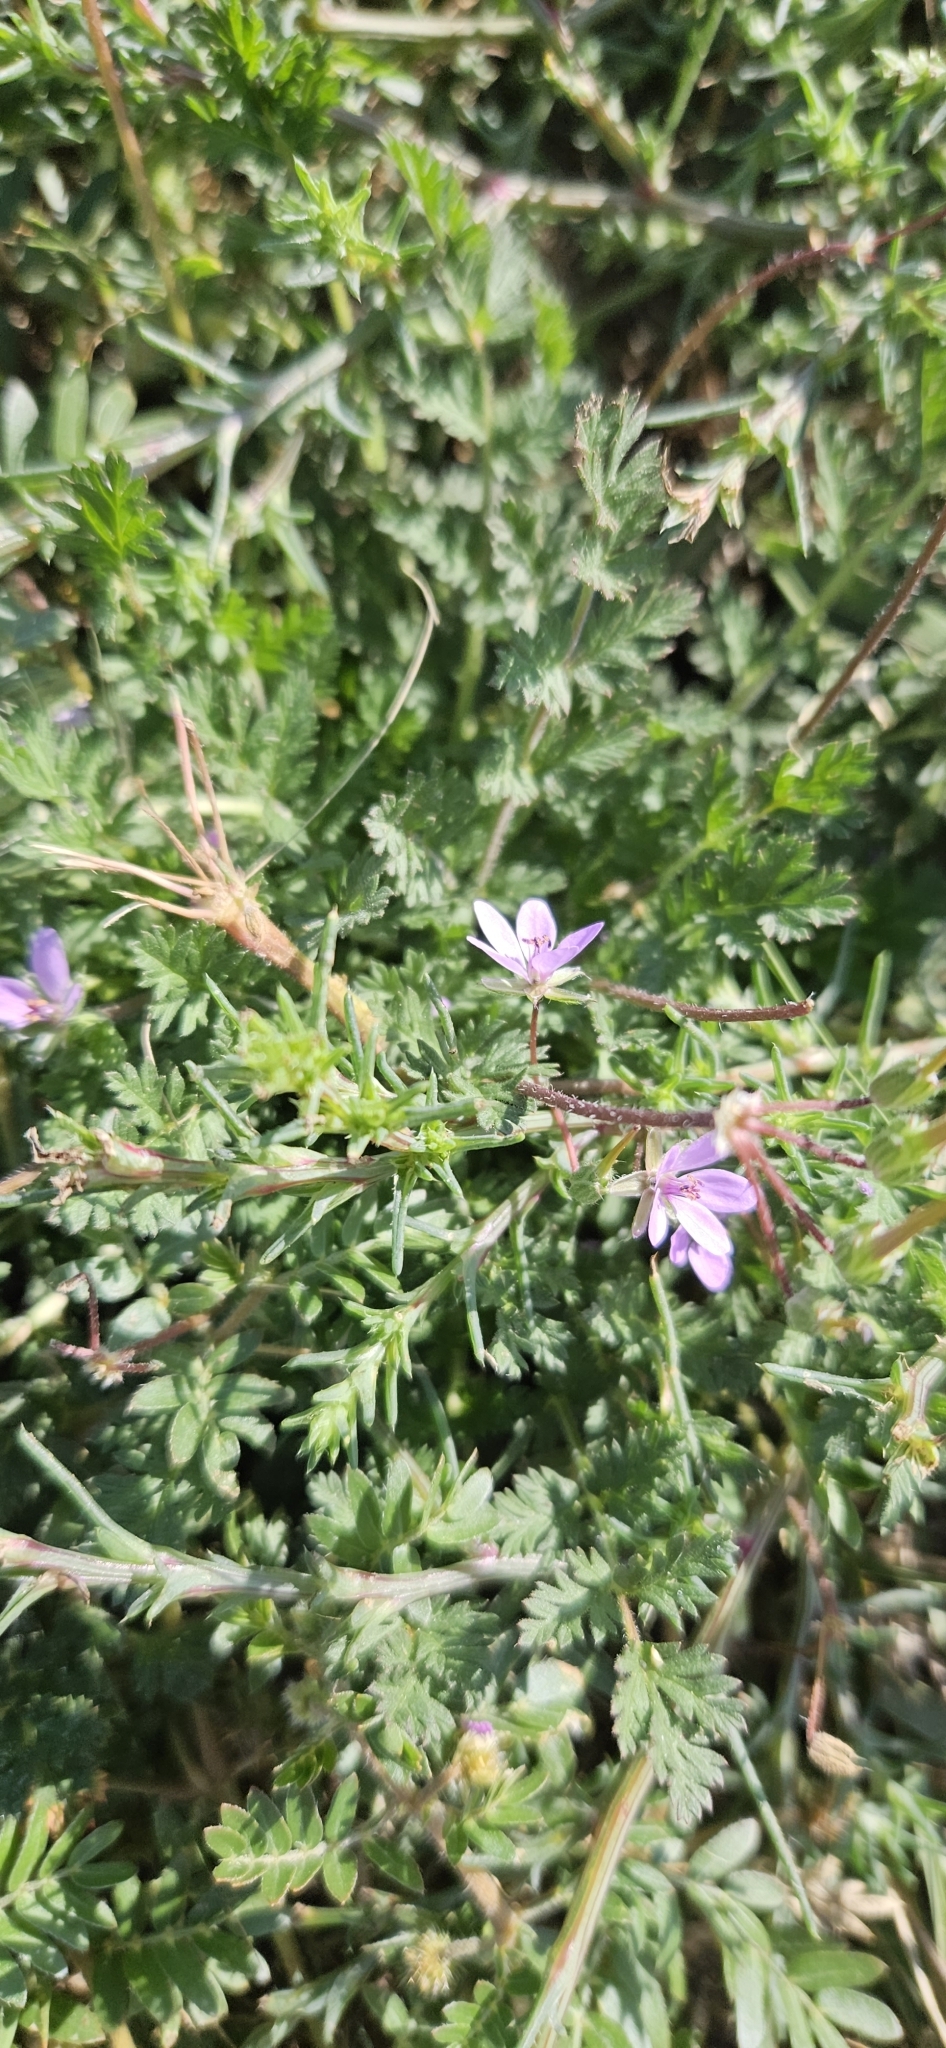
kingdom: Plantae
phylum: Tracheophyta
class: Magnoliopsida
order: Geraniales
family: Geraniaceae
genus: Erodium
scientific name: Erodium cicutarium
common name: Common stork's-bill
